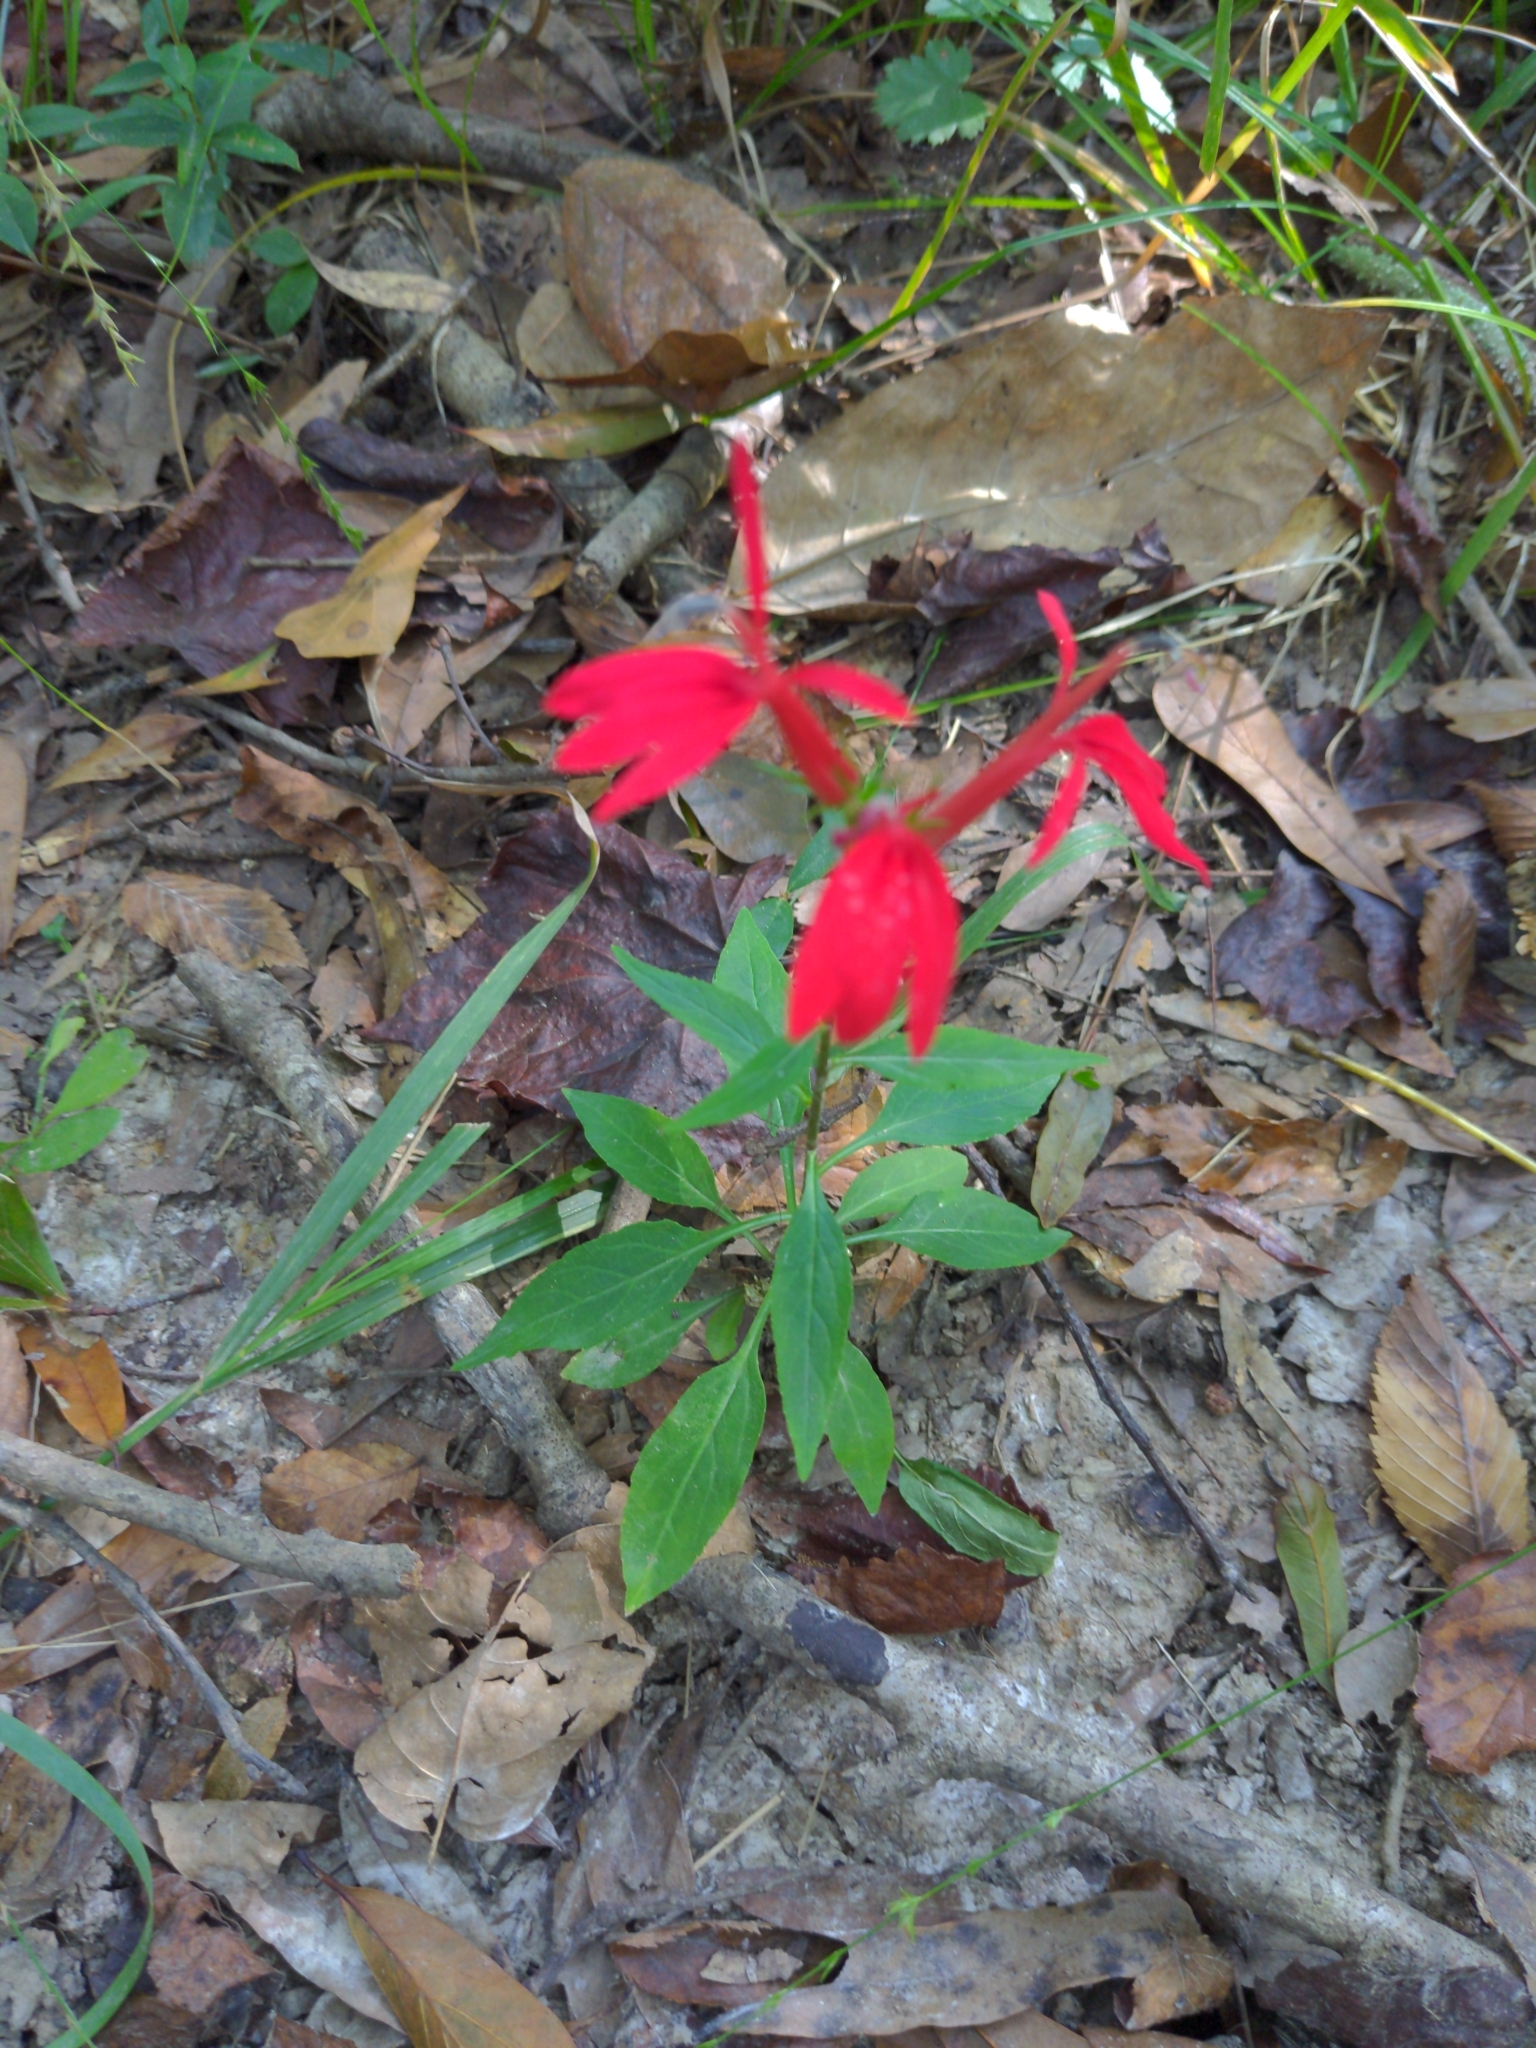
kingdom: Plantae
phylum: Tracheophyta
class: Magnoliopsida
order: Asterales
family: Campanulaceae
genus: Lobelia
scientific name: Lobelia cardinalis
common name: Cardinal flower
